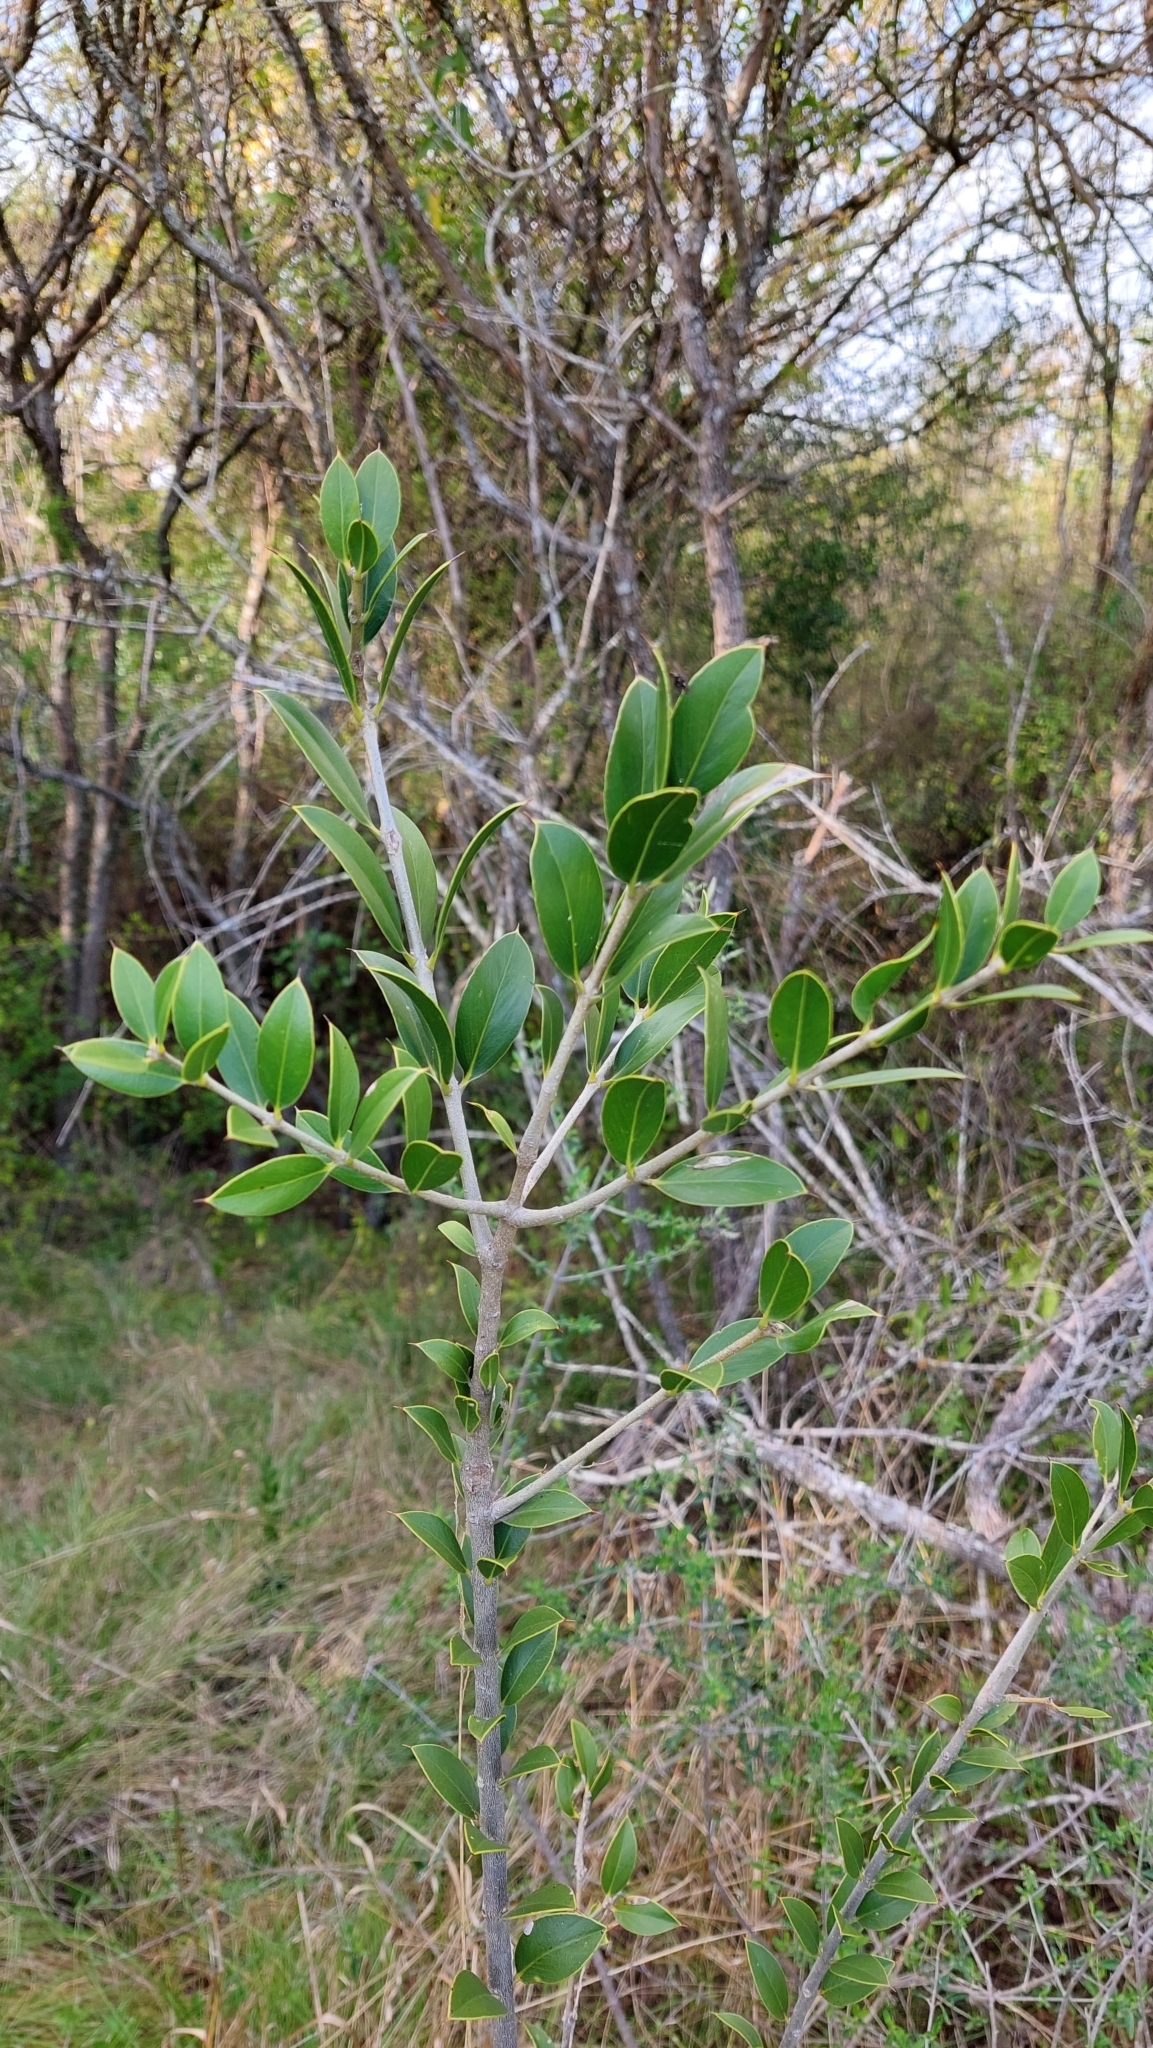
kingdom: Plantae
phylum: Tracheophyta
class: Magnoliopsida
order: Gentianales
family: Apocynaceae
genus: Aspidosperma
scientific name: Aspidosperma quebracho-blanco
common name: White quebracho
